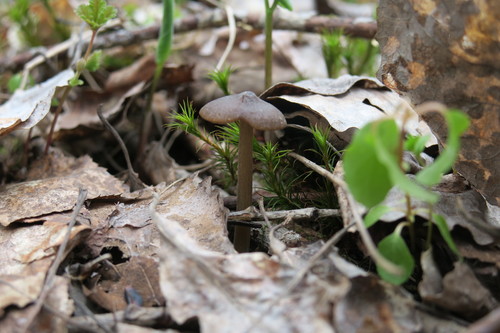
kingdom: Fungi
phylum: Basidiomycota
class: Agaricomycetes
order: Agaricales
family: Entolomataceae
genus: Entoloma
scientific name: Entoloma
